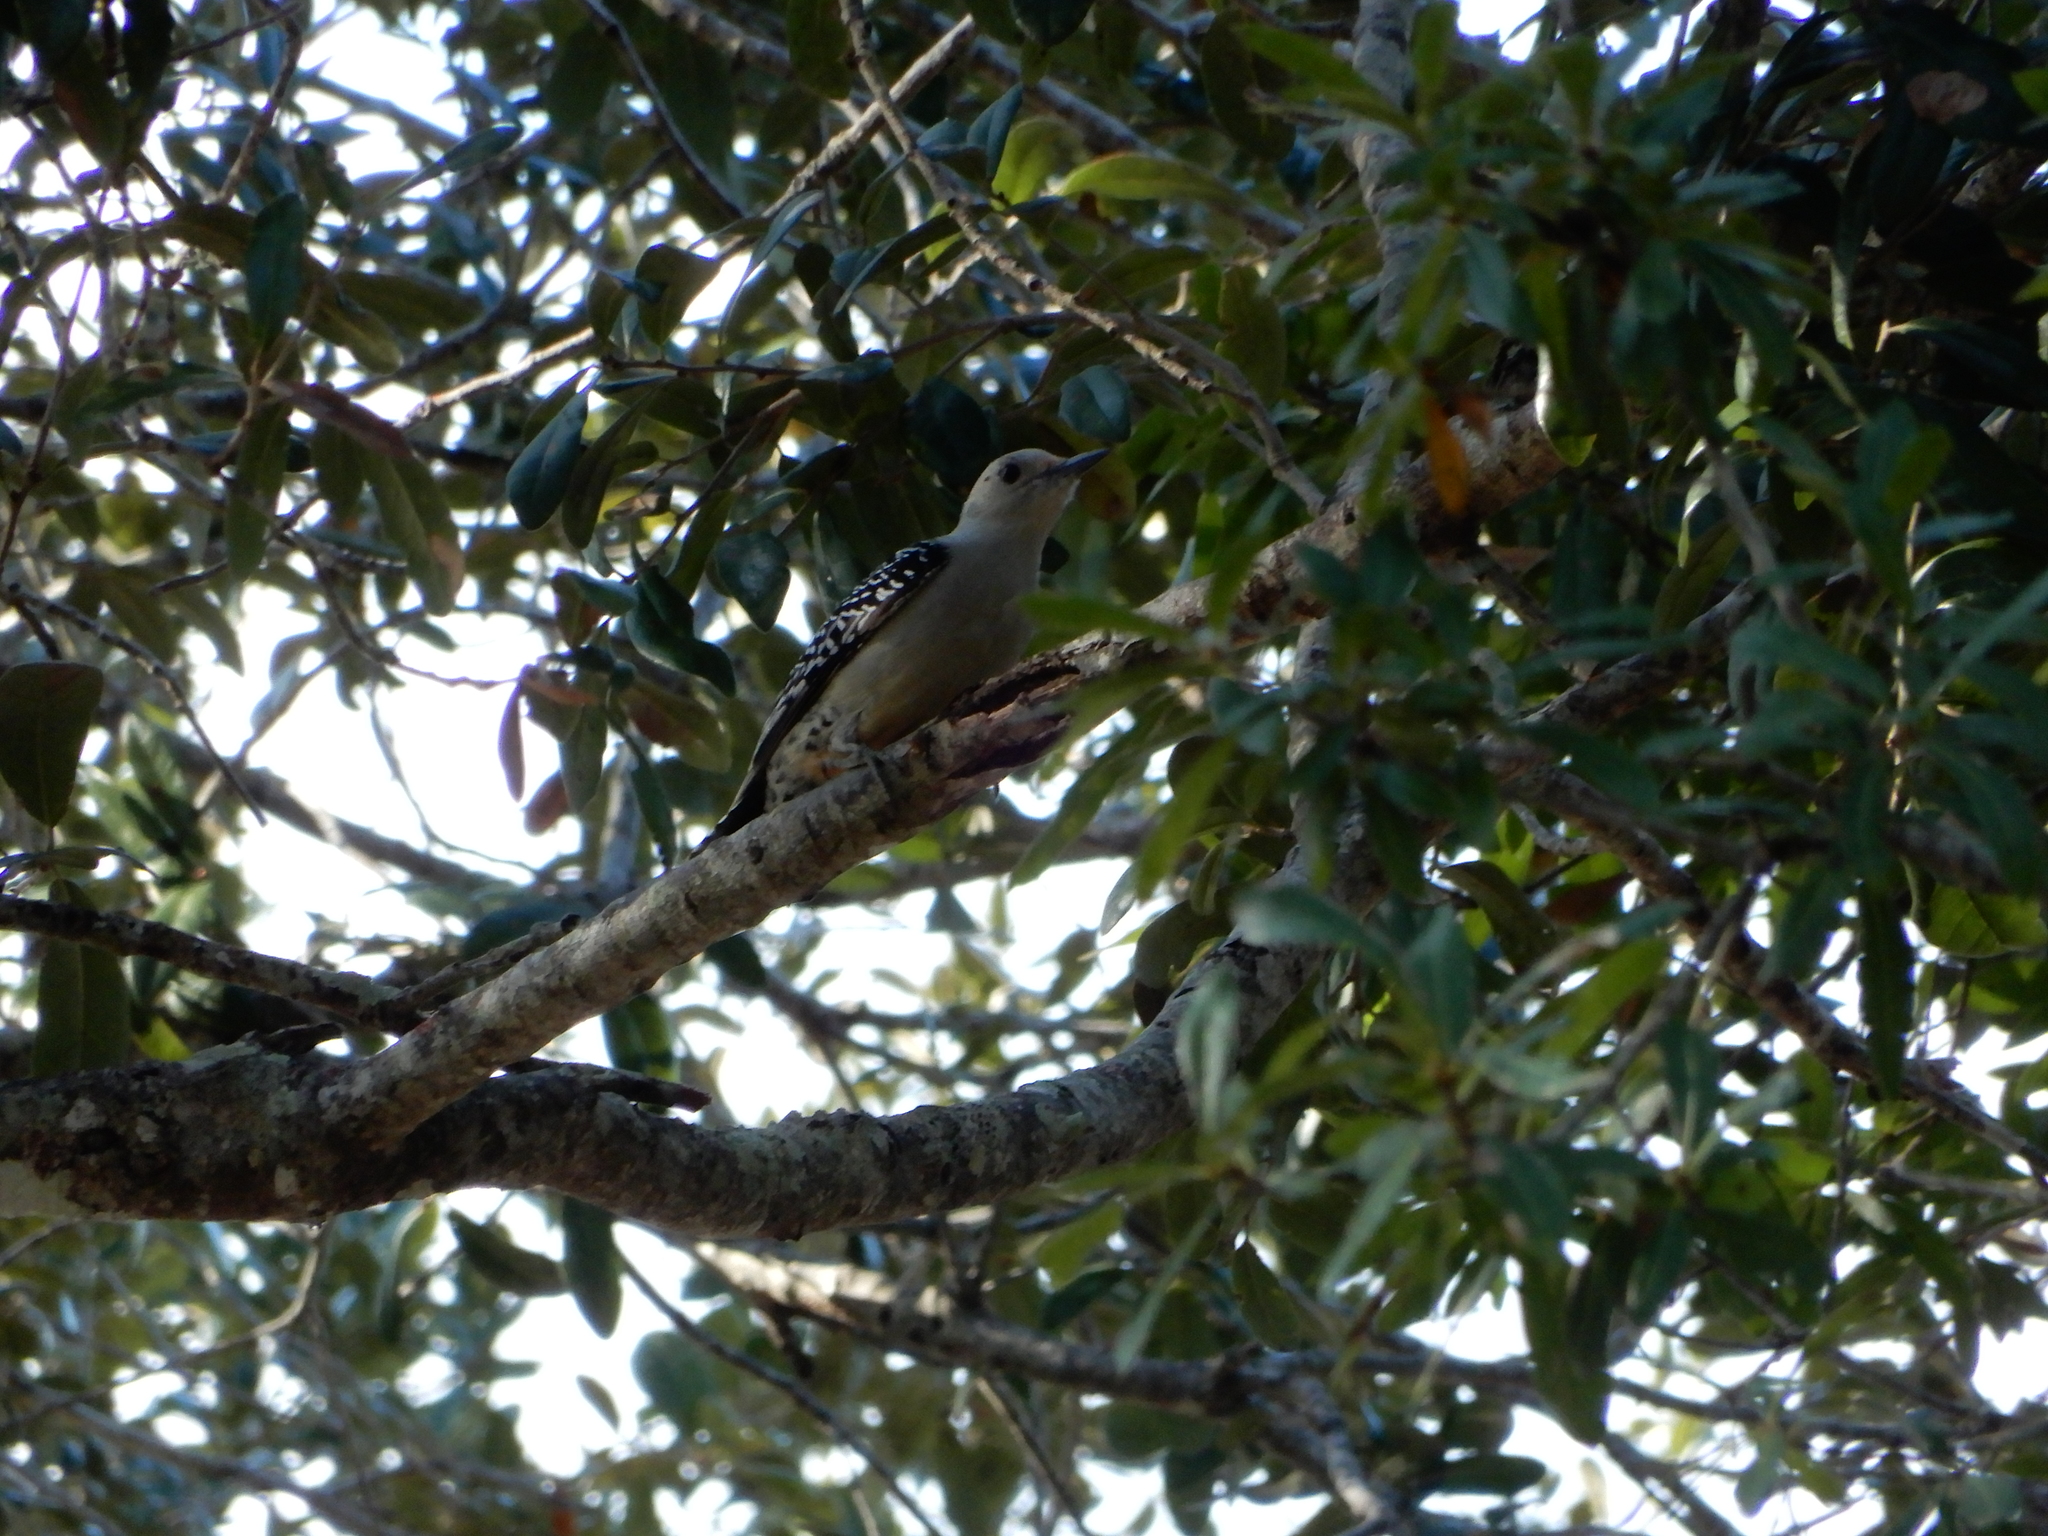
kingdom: Animalia
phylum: Chordata
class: Aves
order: Piciformes
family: Picidae
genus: Melanerpes
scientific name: Melanerpes carolinus
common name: Red-bellied woodpecker
